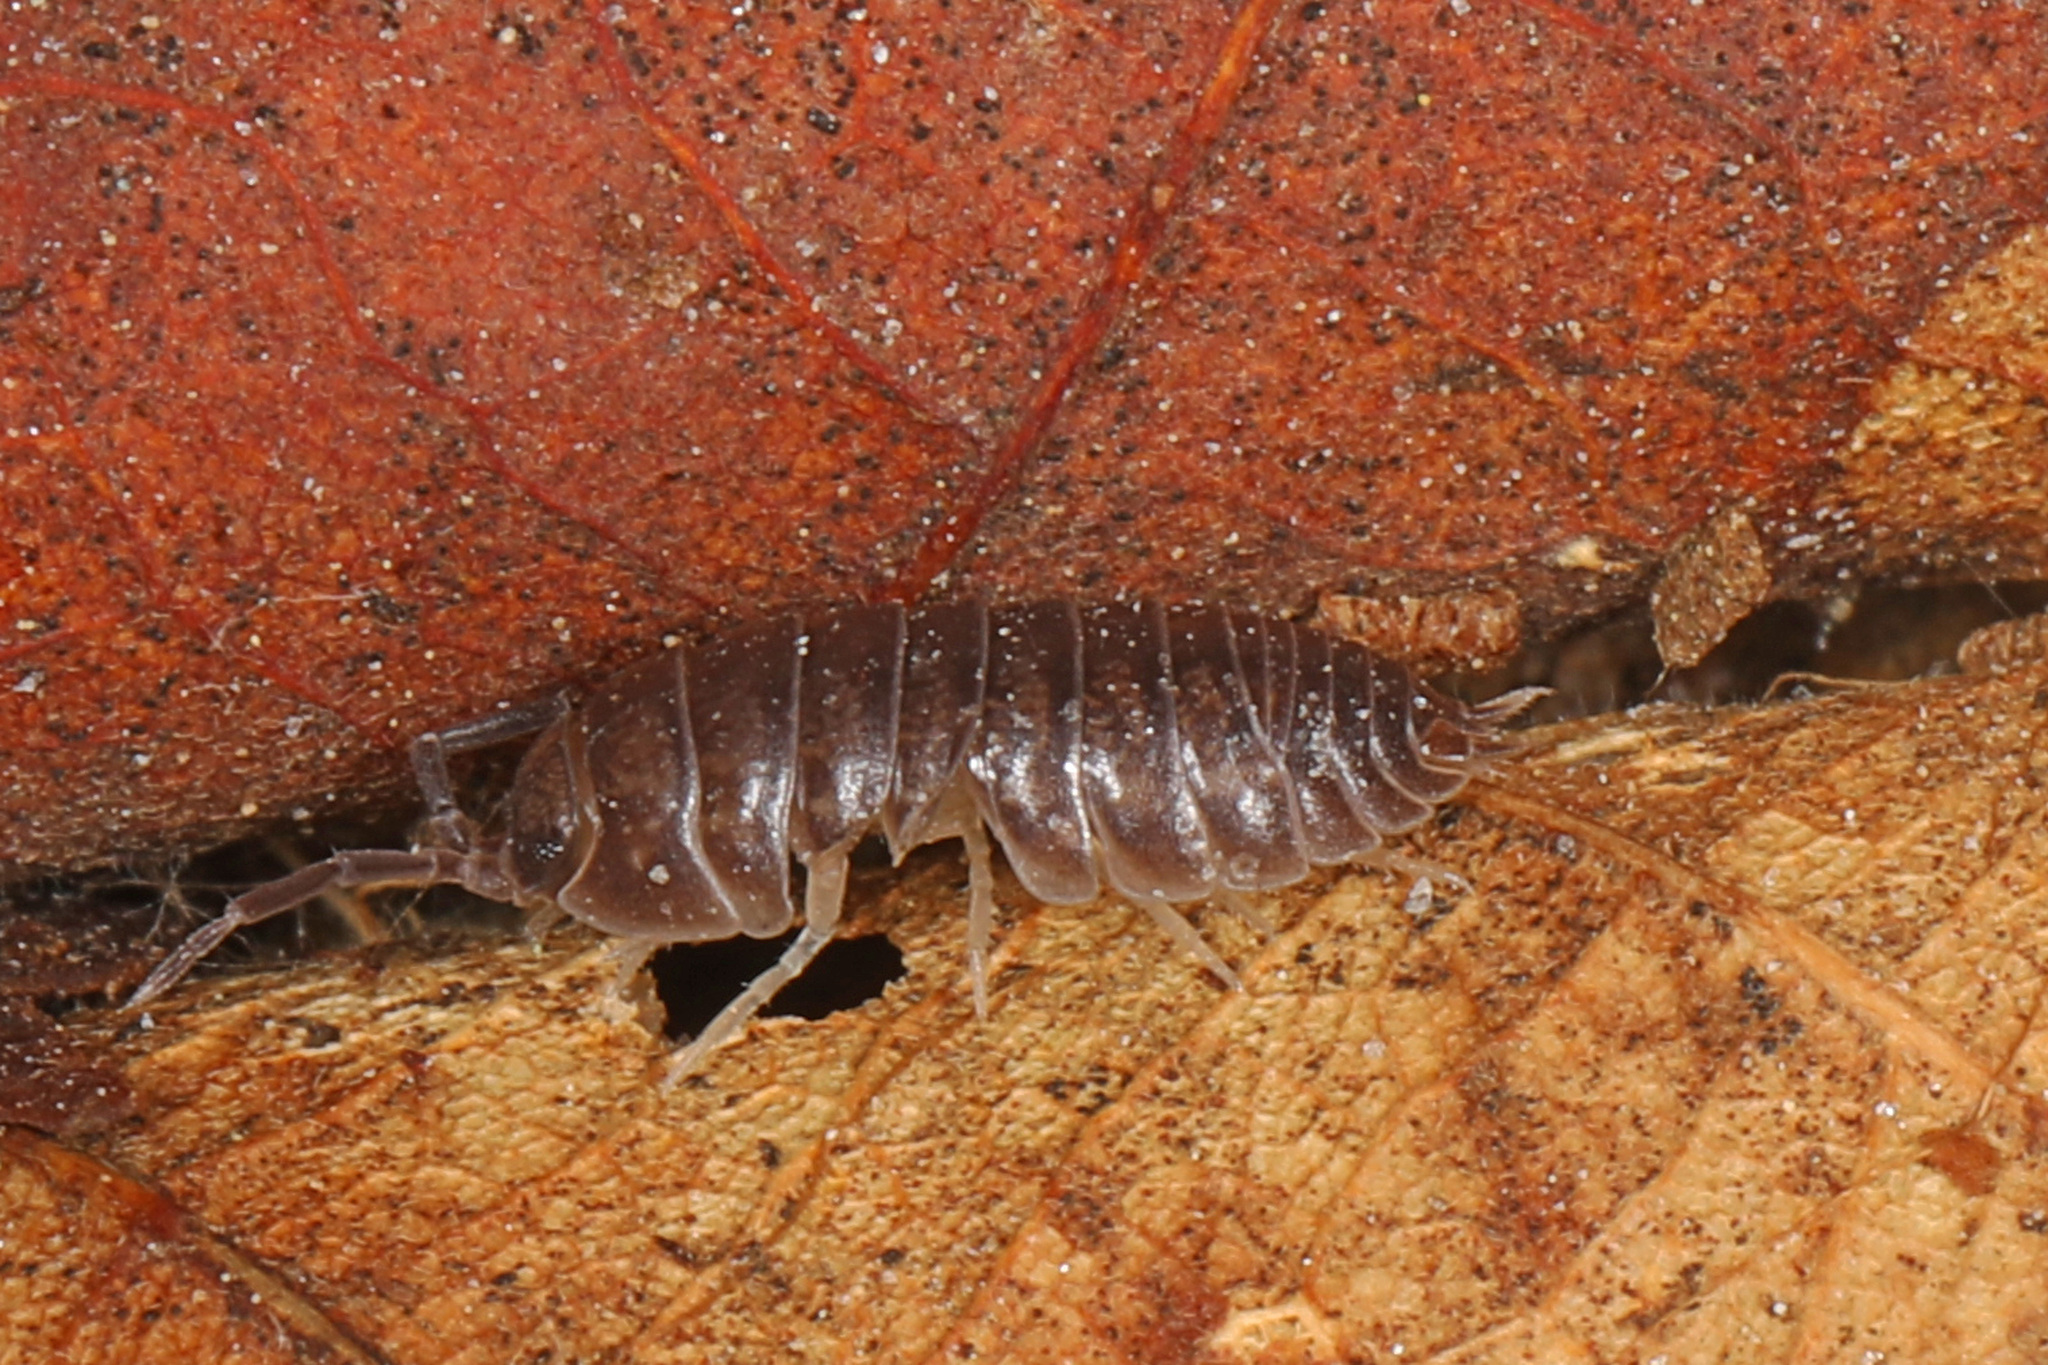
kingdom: Animalia
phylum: Arthropoda
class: Malacostraca
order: Isopoda
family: Cylisticidae
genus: Cylisticus
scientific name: Cylisticus convexus
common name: Curly woodlouse
